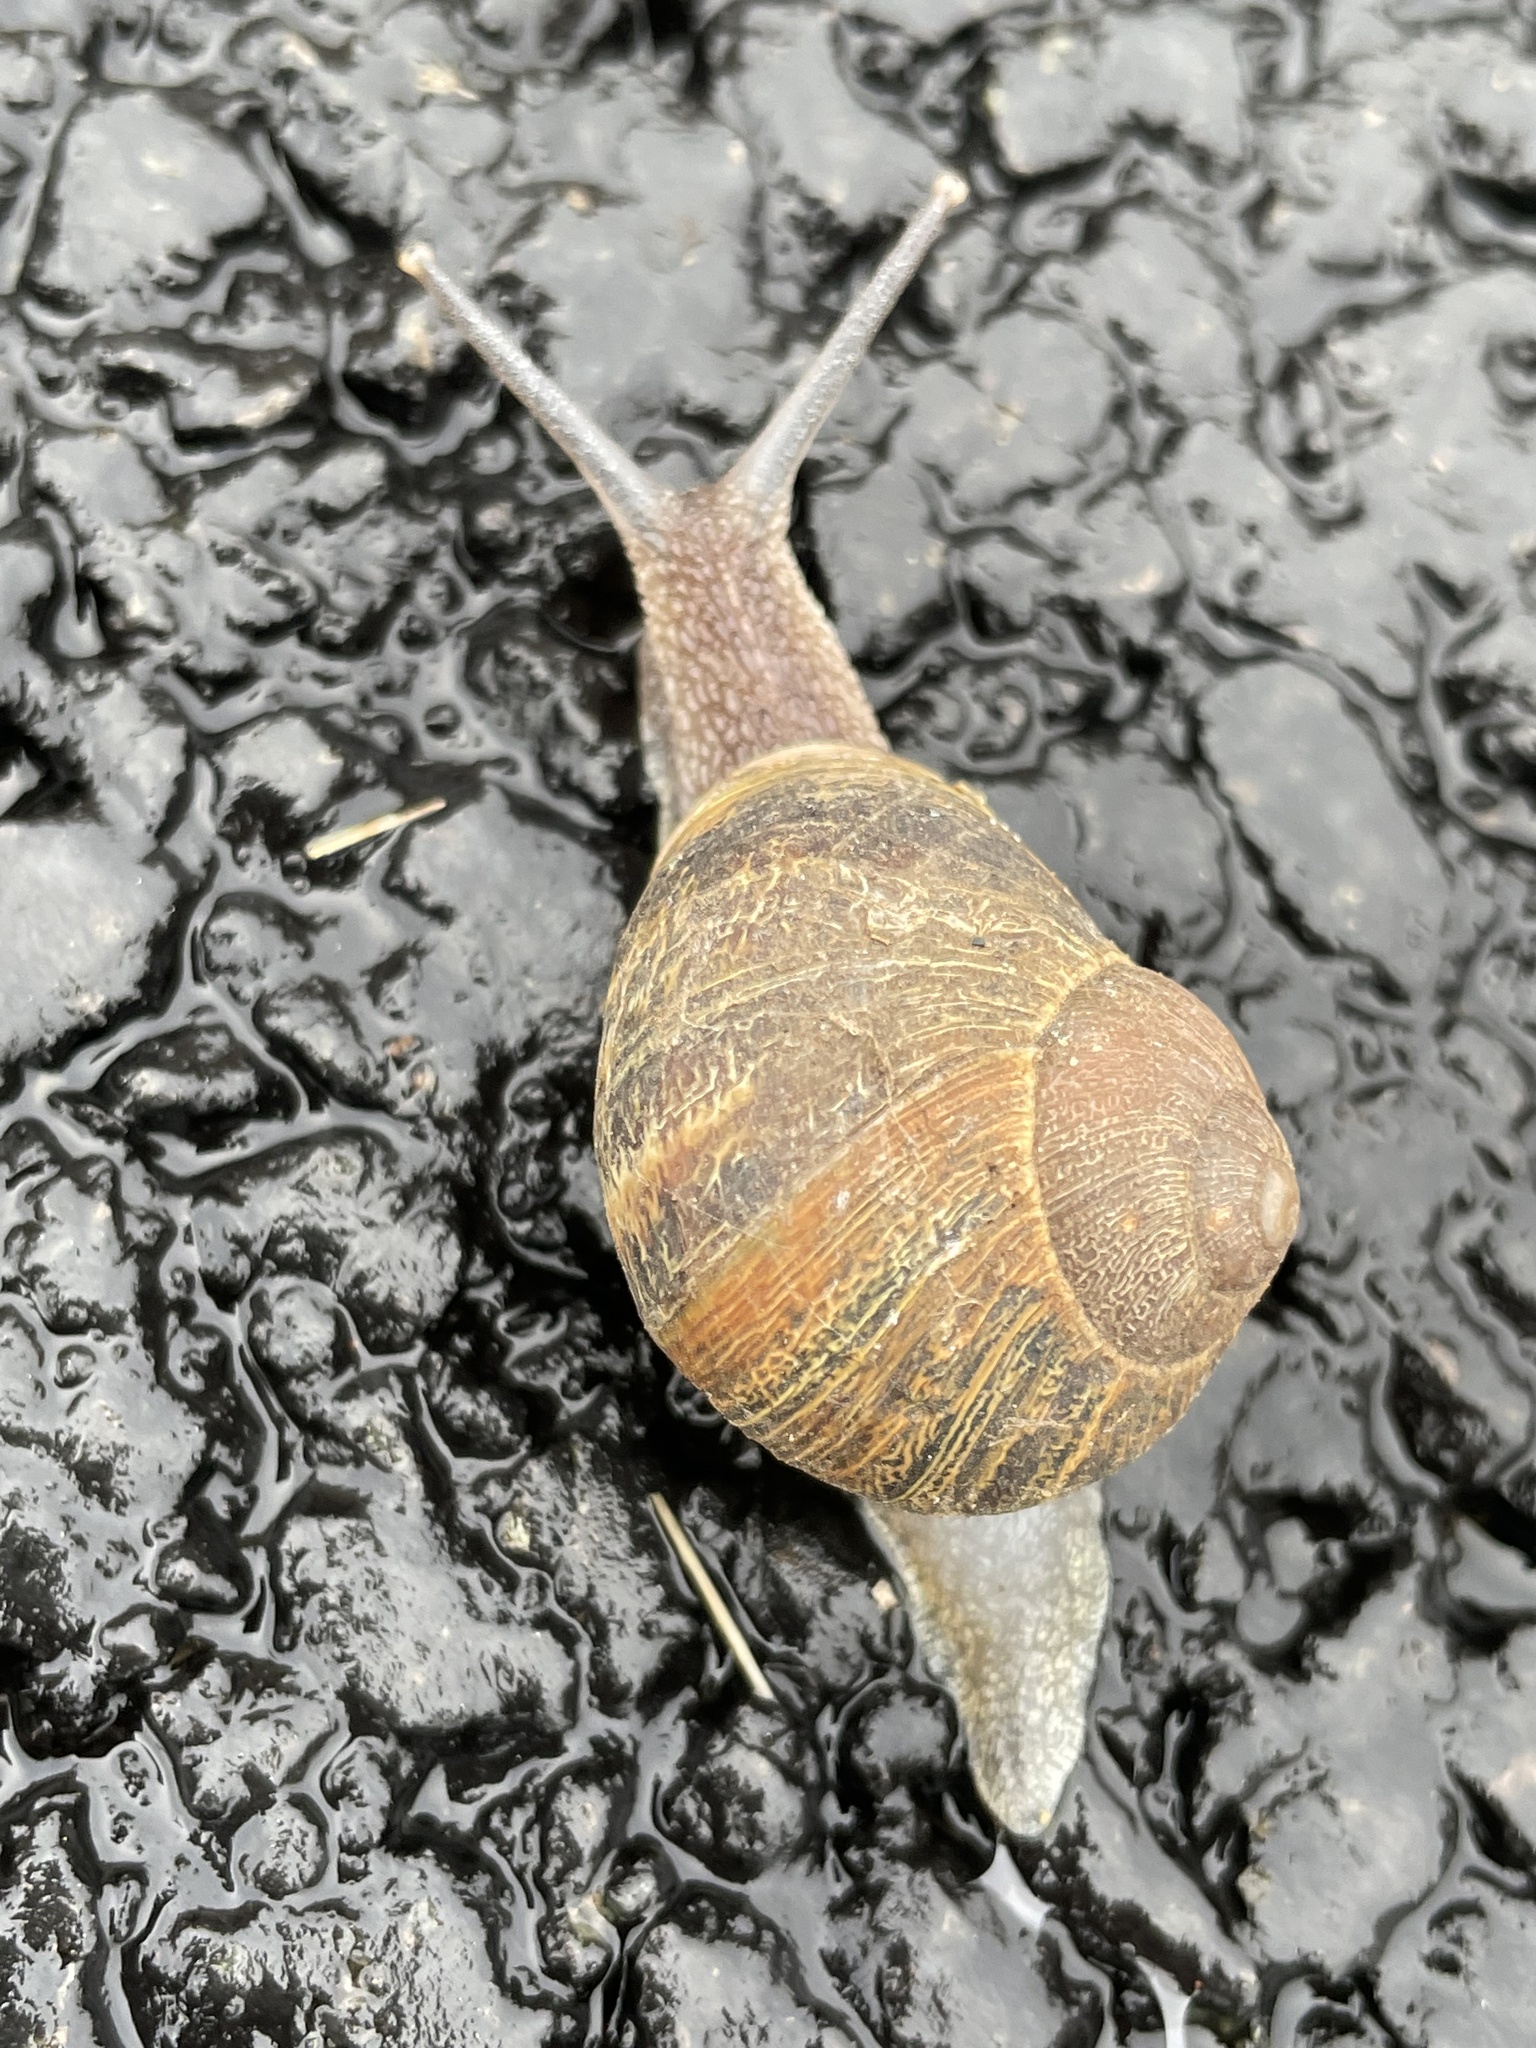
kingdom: Animalia
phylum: Mollusca
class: Gastropoda
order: Stylommatophora
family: Helicidae
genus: Cornu
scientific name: Cornu aspersum
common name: Brown garden snail
